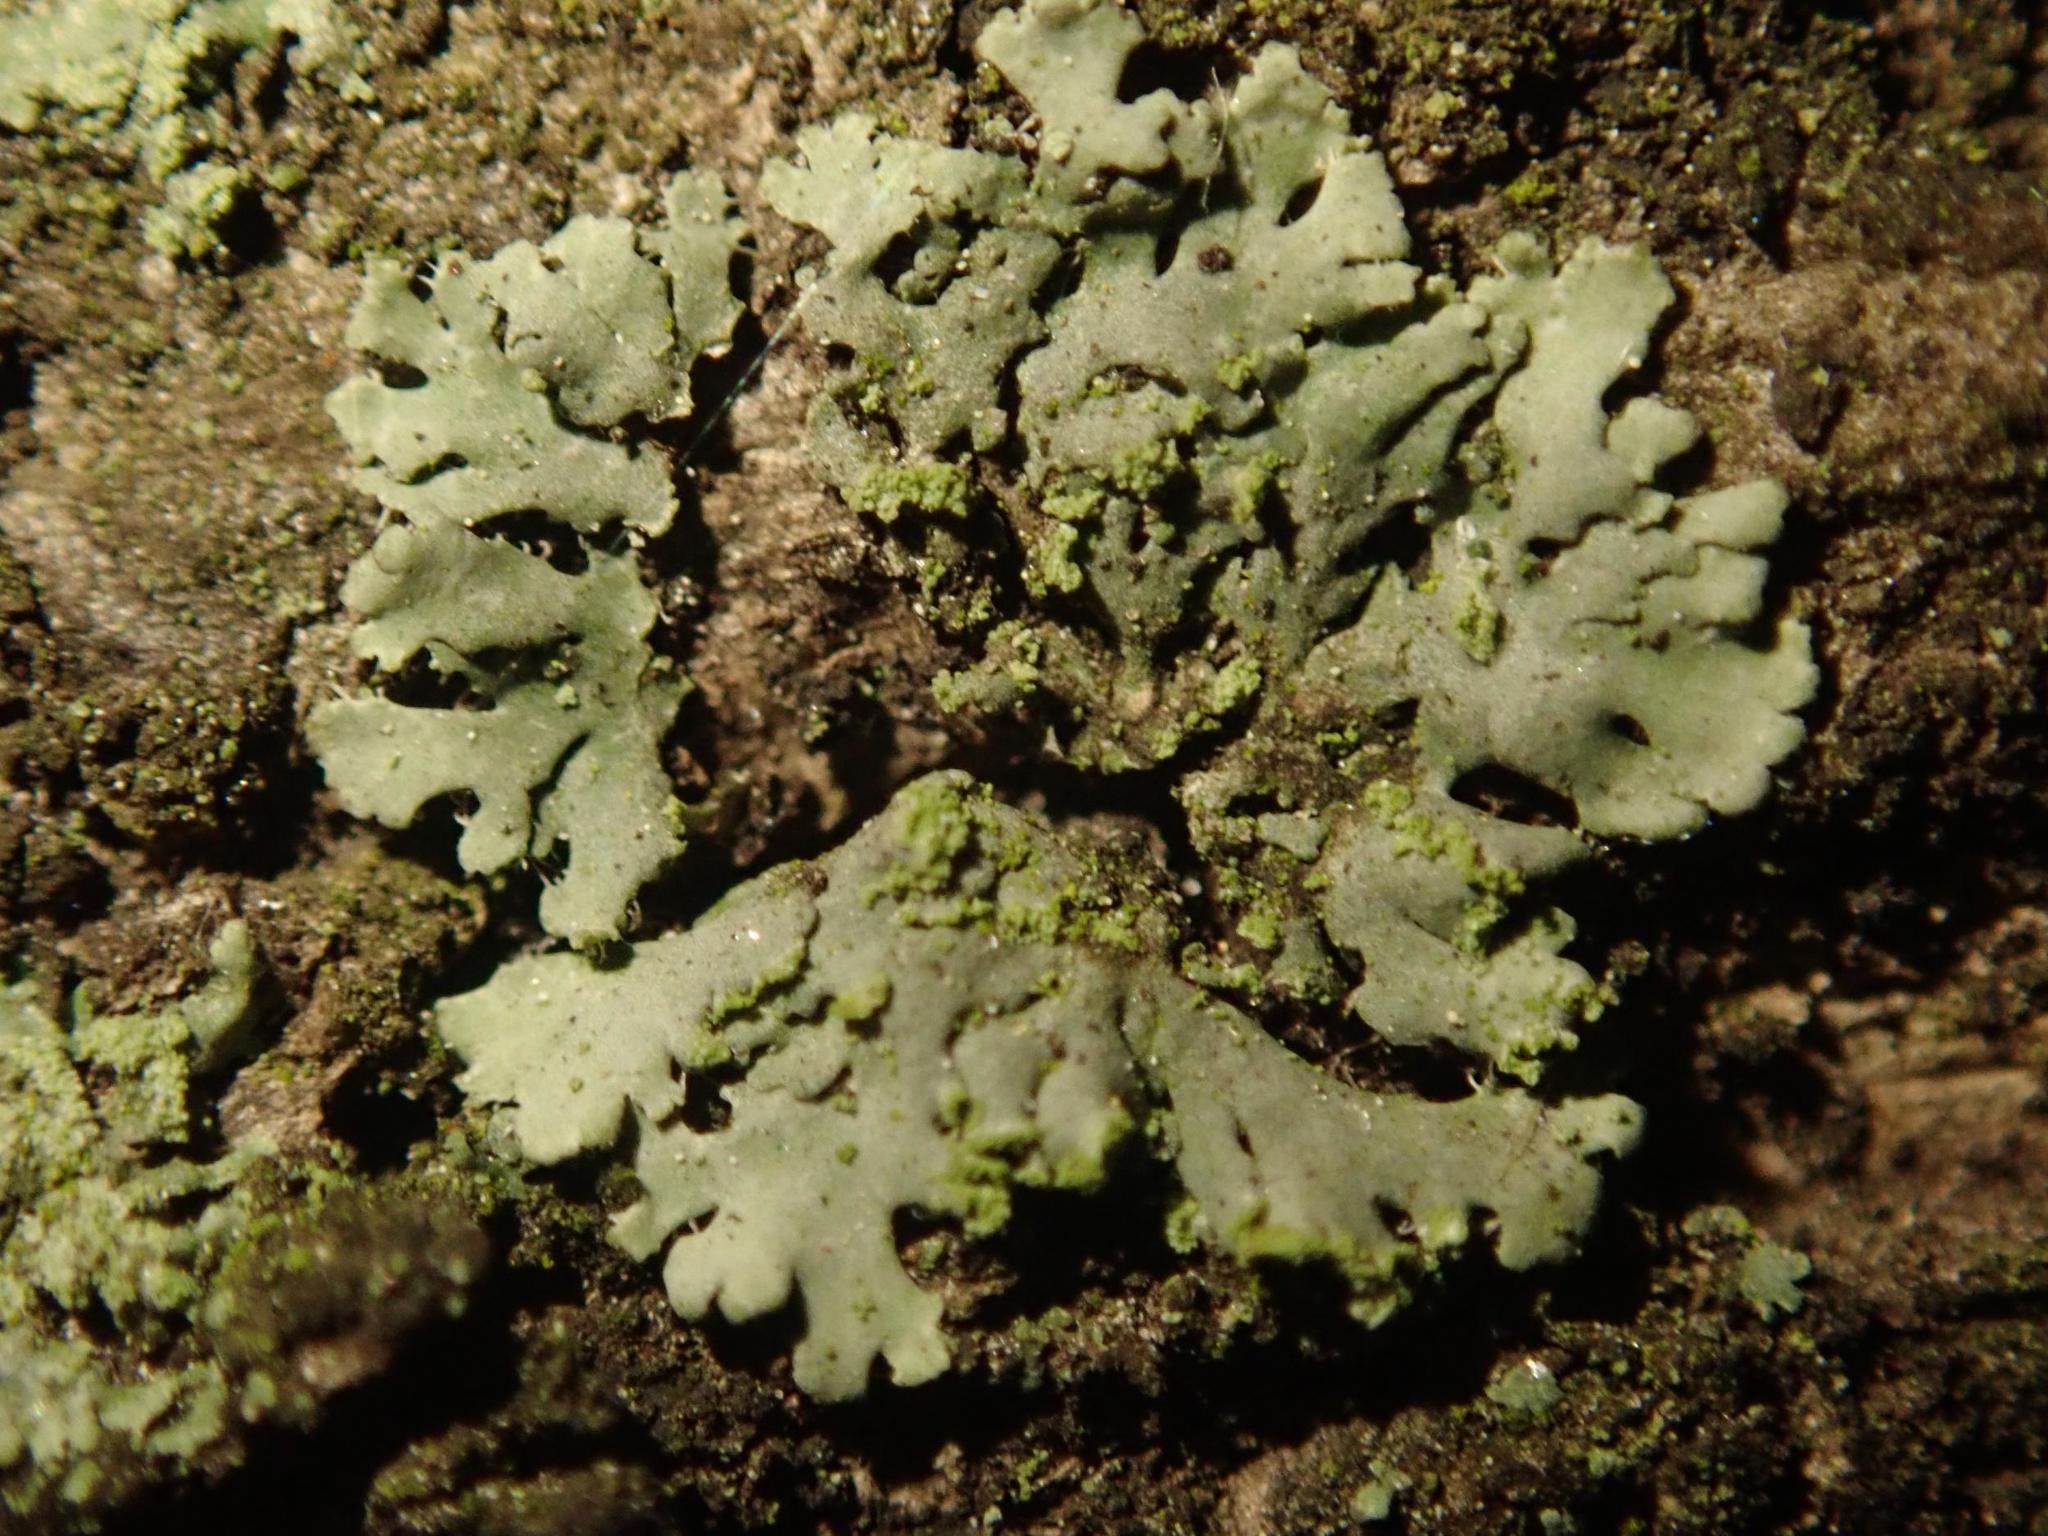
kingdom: Fungi
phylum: Ascomycota
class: Lecanoromycetes
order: Caliciales
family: Physciaceae
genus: Phaeophyscia
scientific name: Phaeophyscia orbicularis
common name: Mealy shadow lichen
